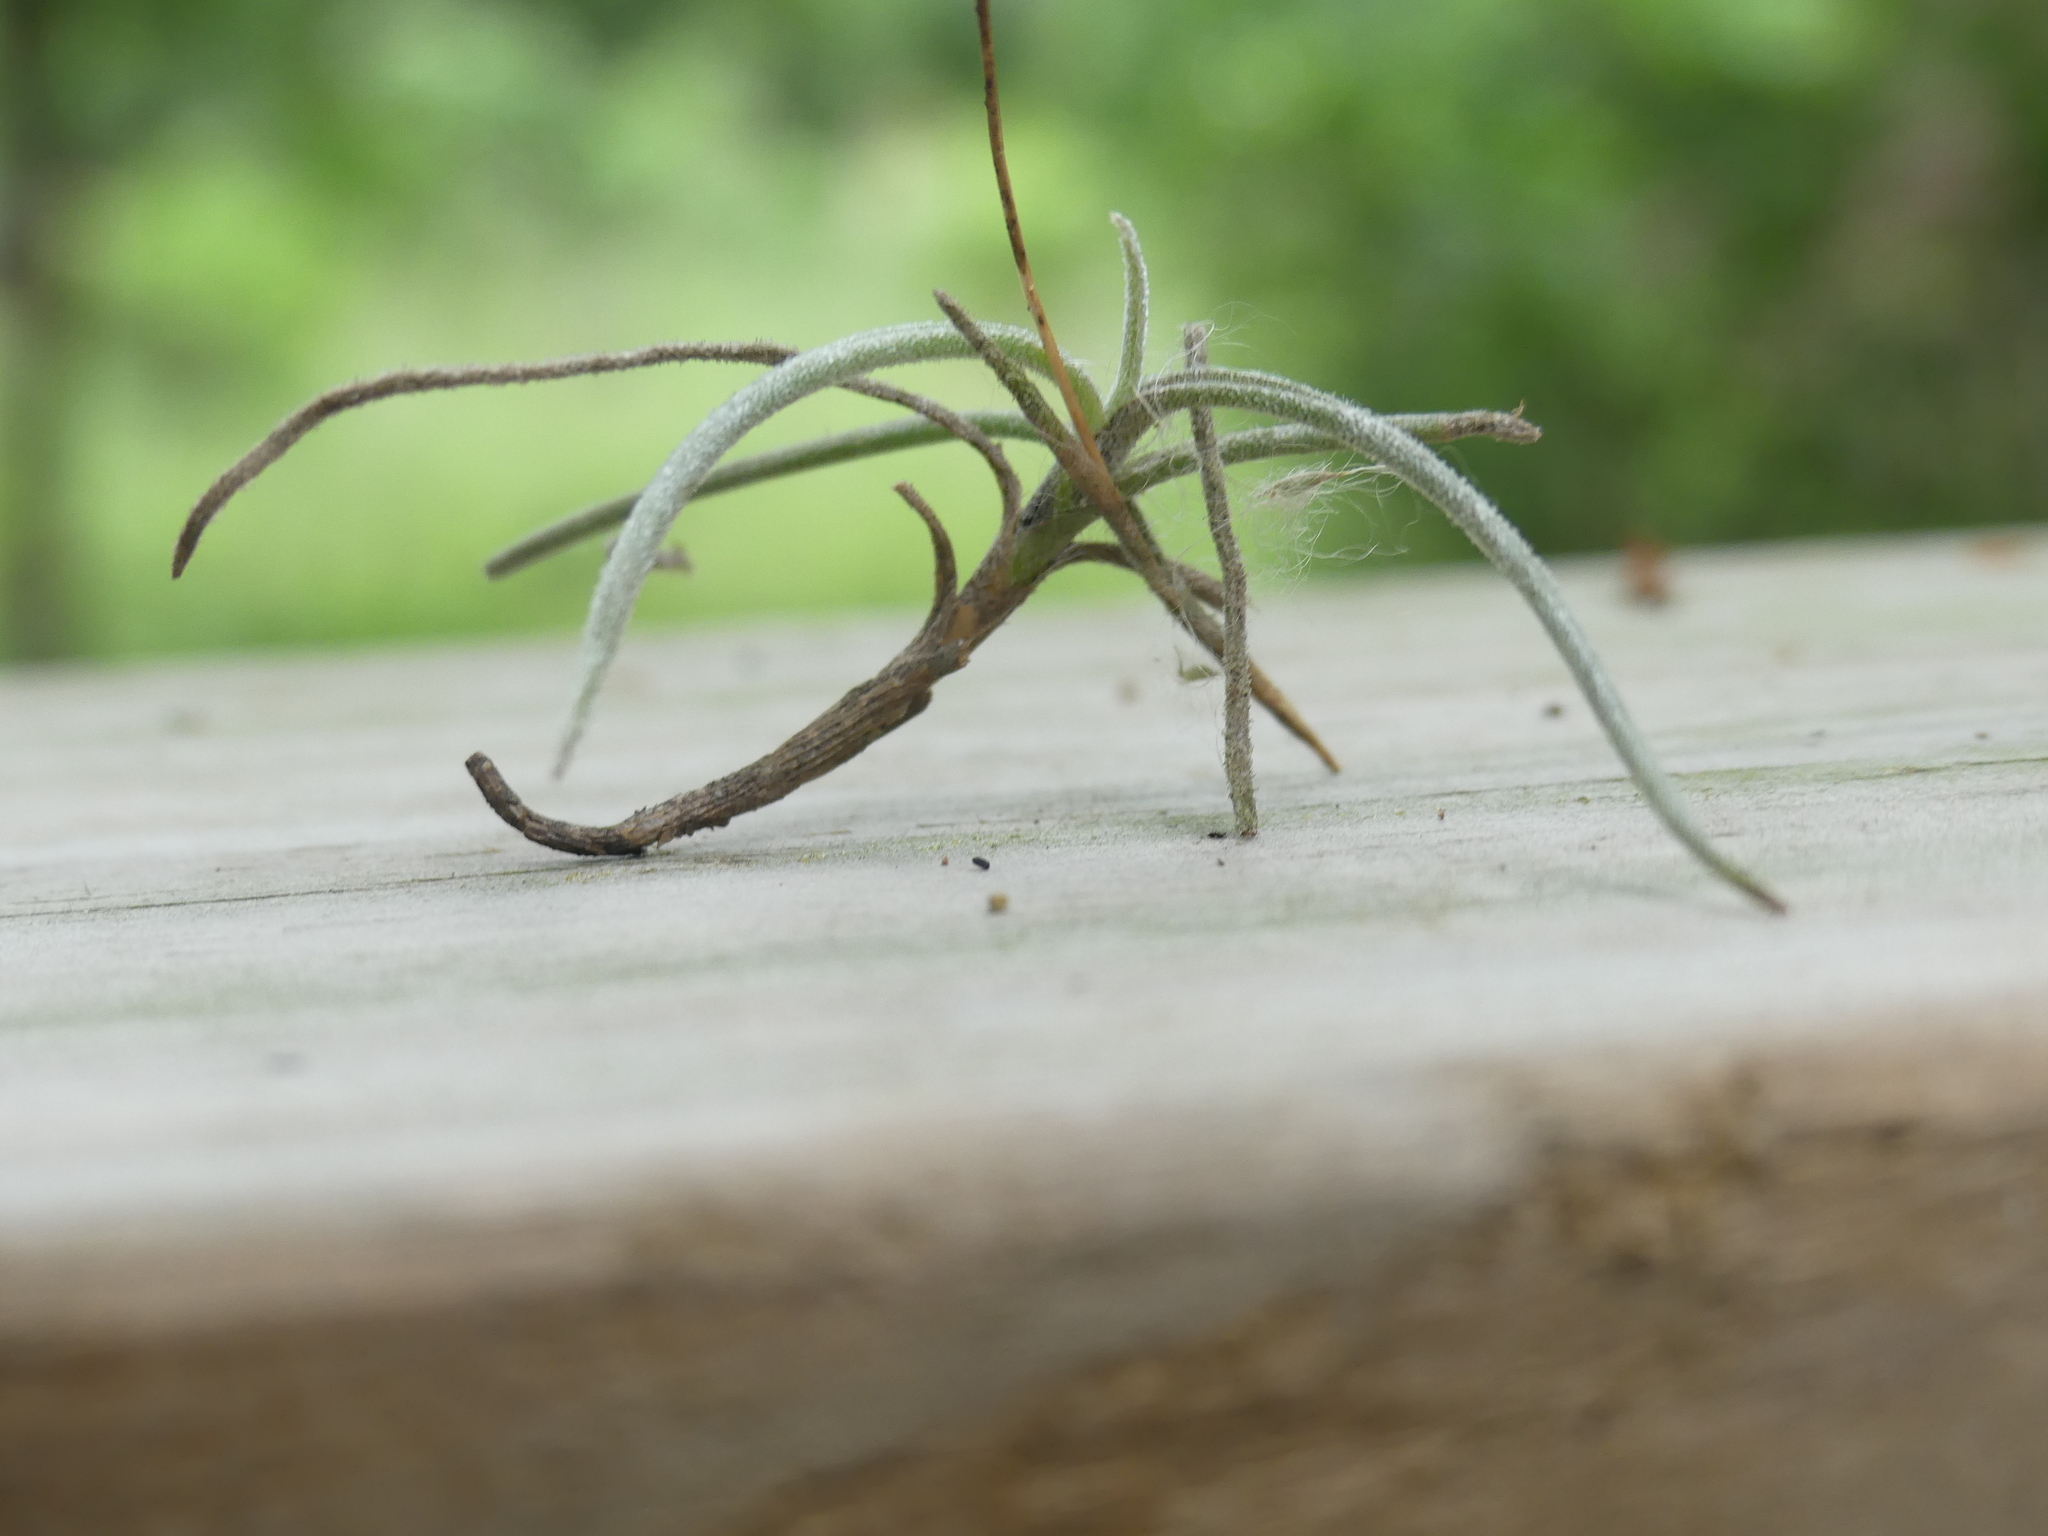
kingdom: Plantae
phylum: Tracheophyta
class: Liliopsida
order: Poales
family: Bromeliaceae
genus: Tillandsia
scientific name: Tillandsia recurvata
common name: Small ballmoss
